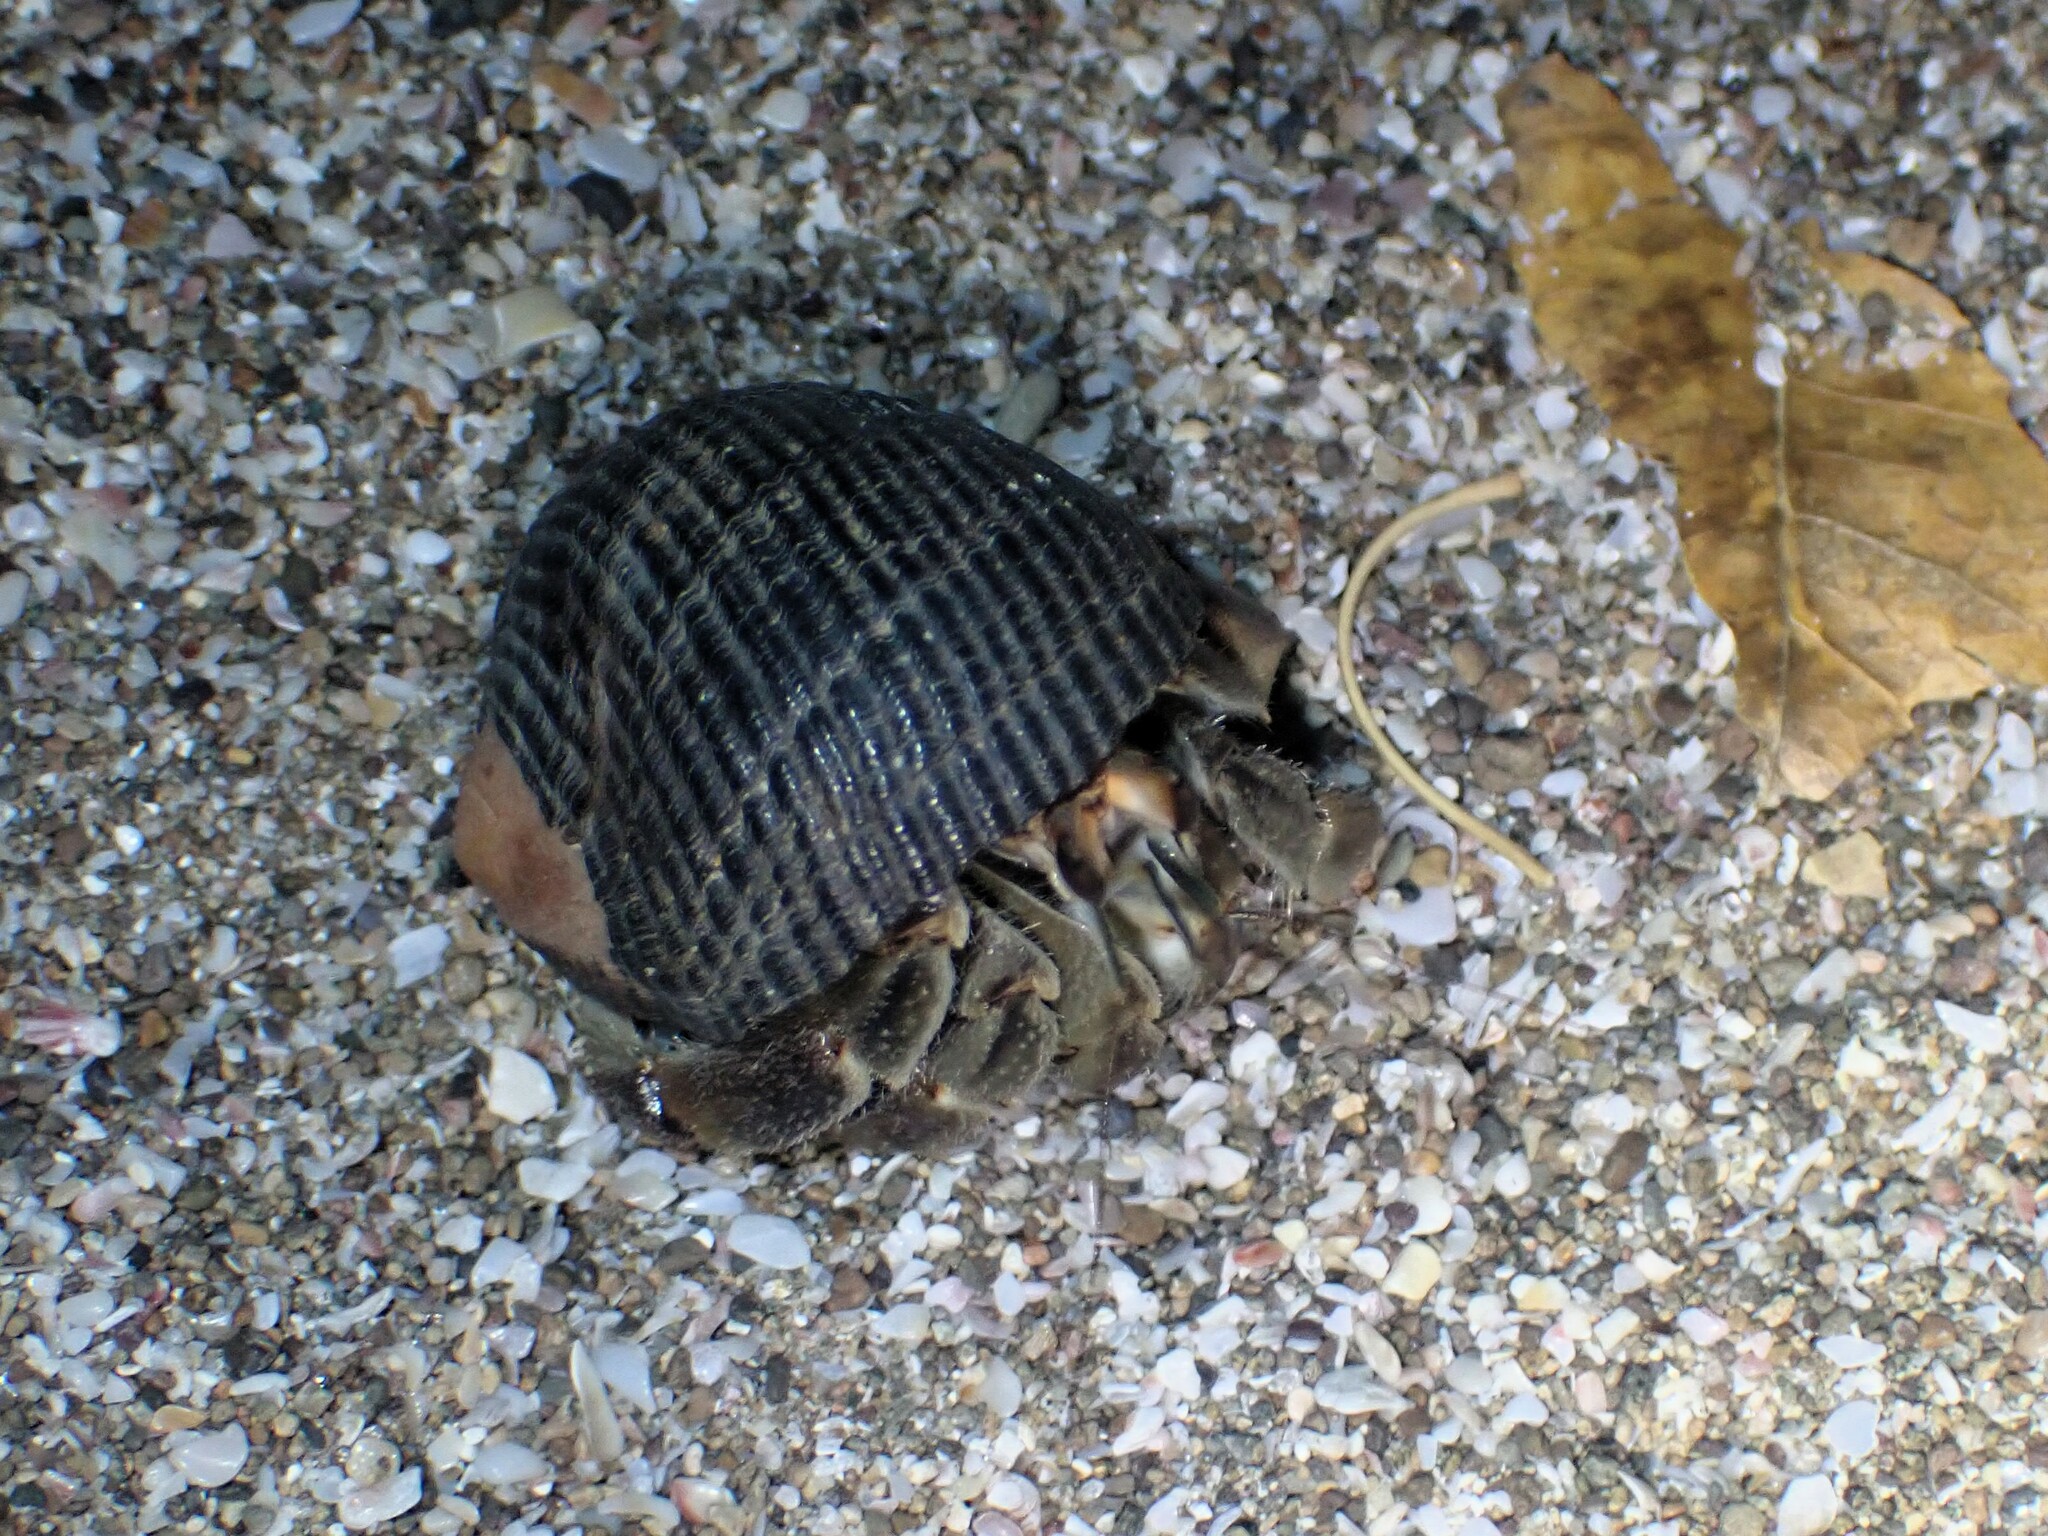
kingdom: Animalia
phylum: Arthropoda
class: Malacostraca
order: Decapoda
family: Coenobitidae
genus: Coenobita
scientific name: Coenobita compressus
